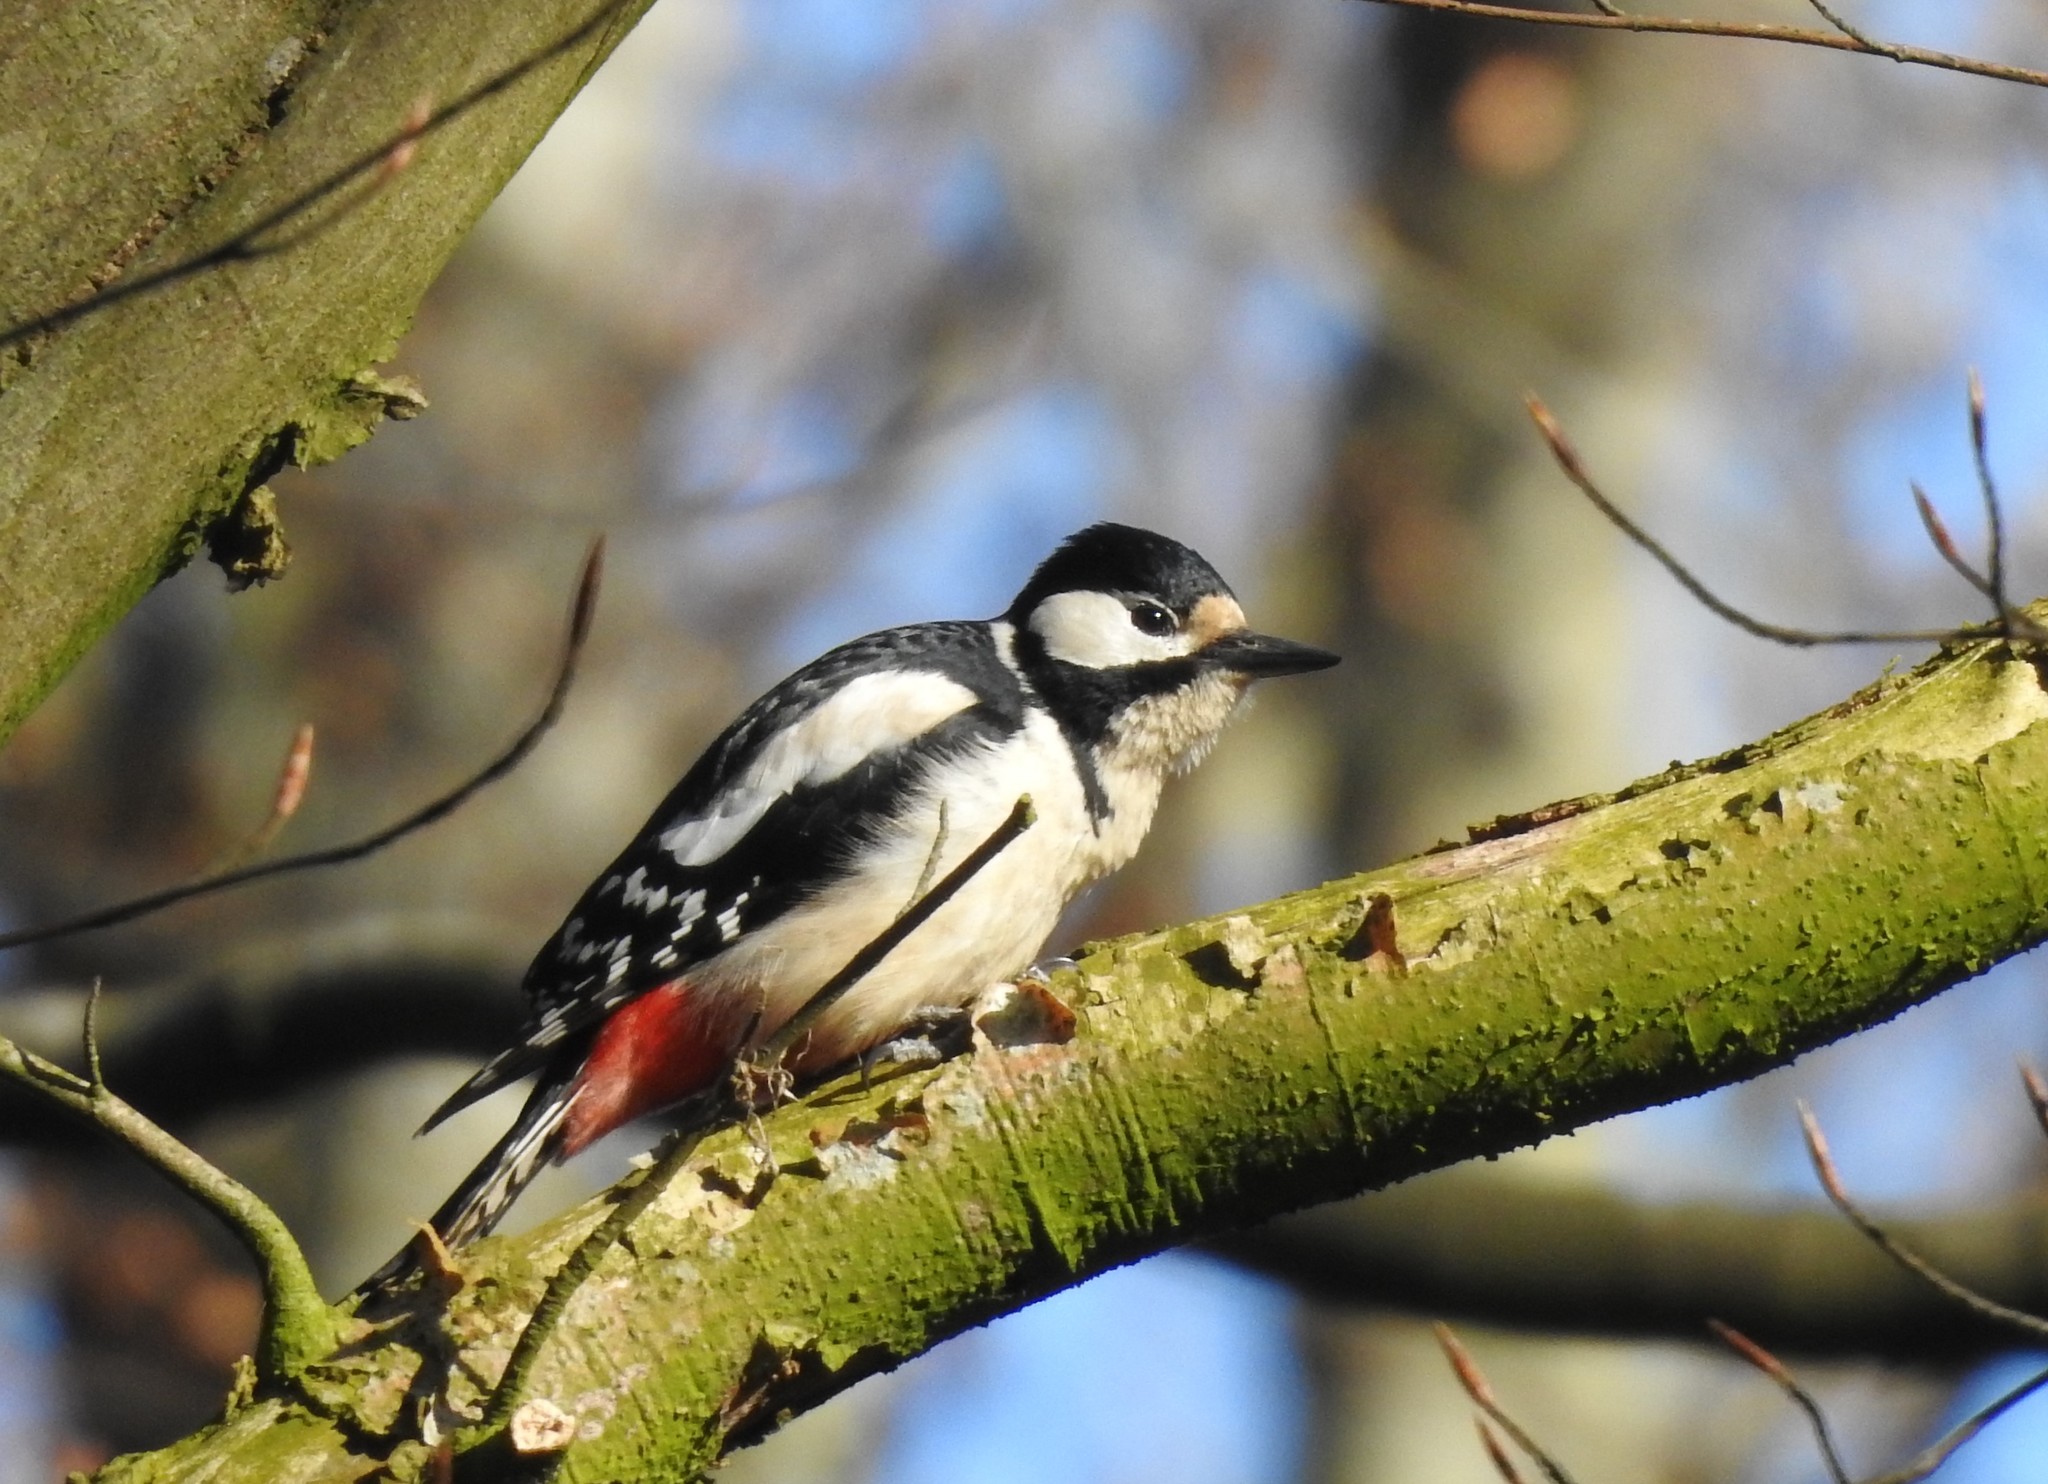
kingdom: Animalia
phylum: Chordata
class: Aves
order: Piciformes
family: Picidae
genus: Dendrocopos
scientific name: Dendrocopos major
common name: Great spotted woodpecker
